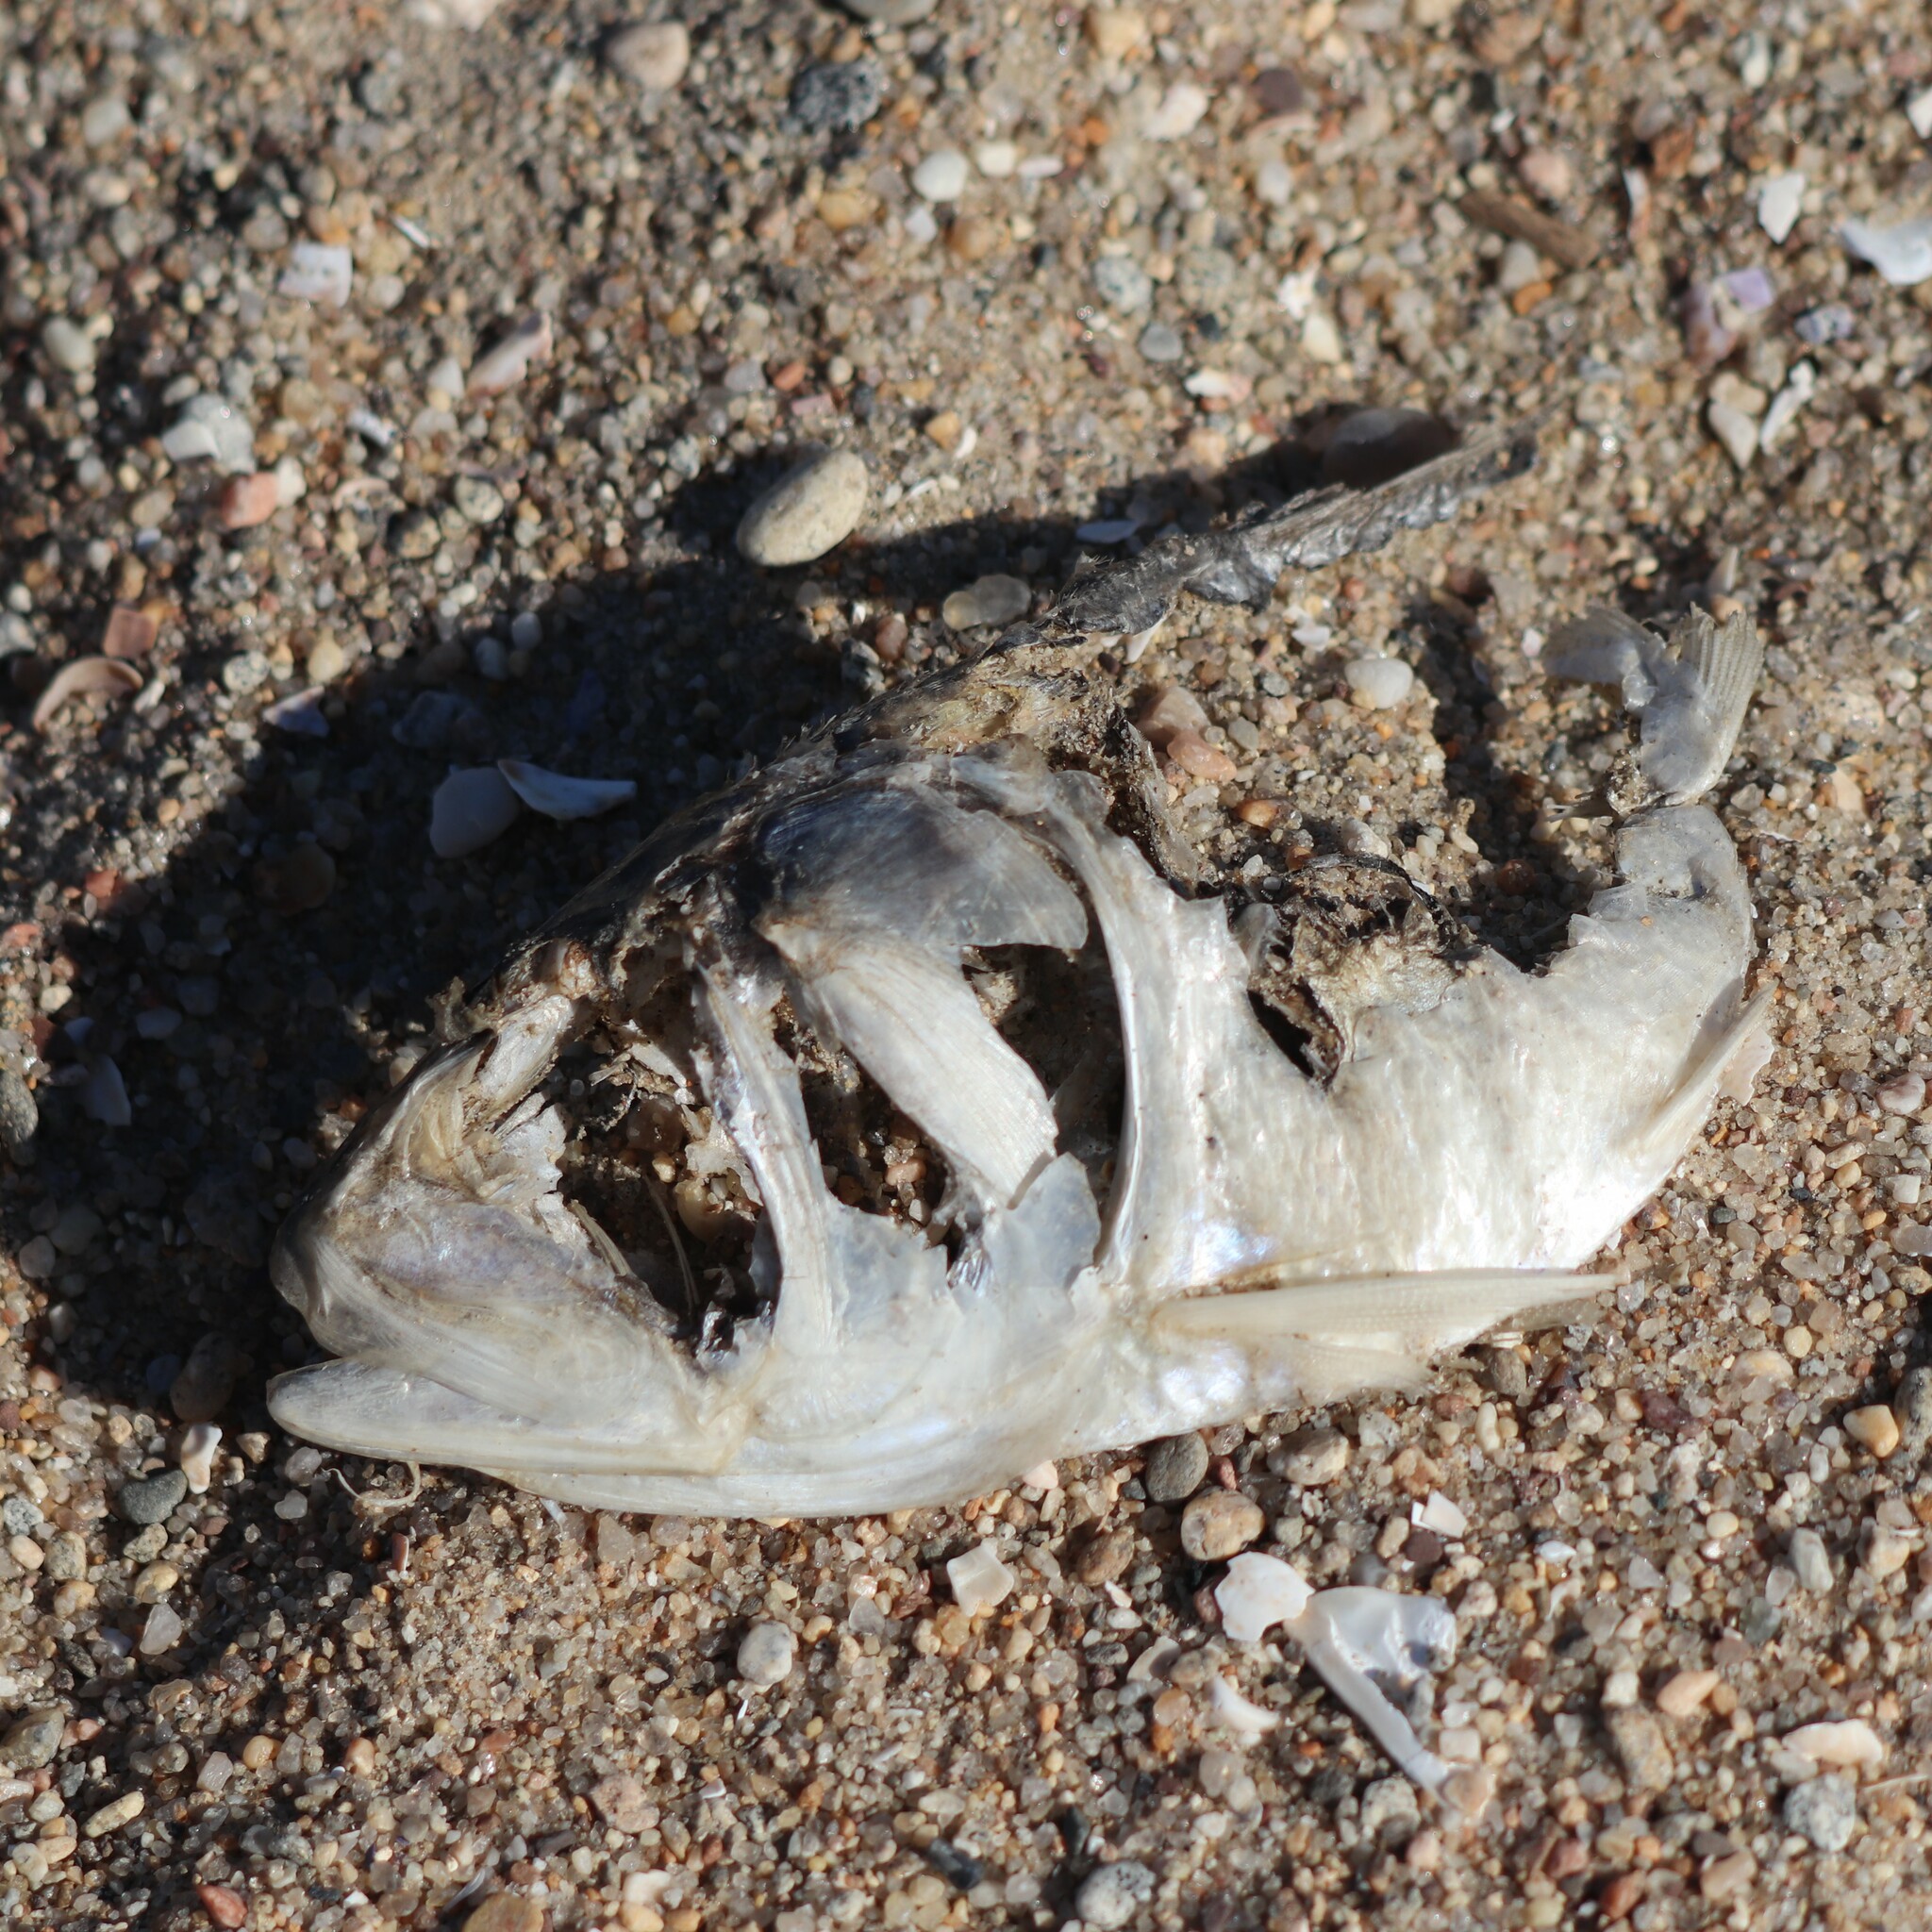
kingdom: Animalia
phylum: Chordata
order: Clupeiformes
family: Clupeidae
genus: Brevoortia
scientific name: Brevoortia tyrannus
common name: Atlantic menhaden
